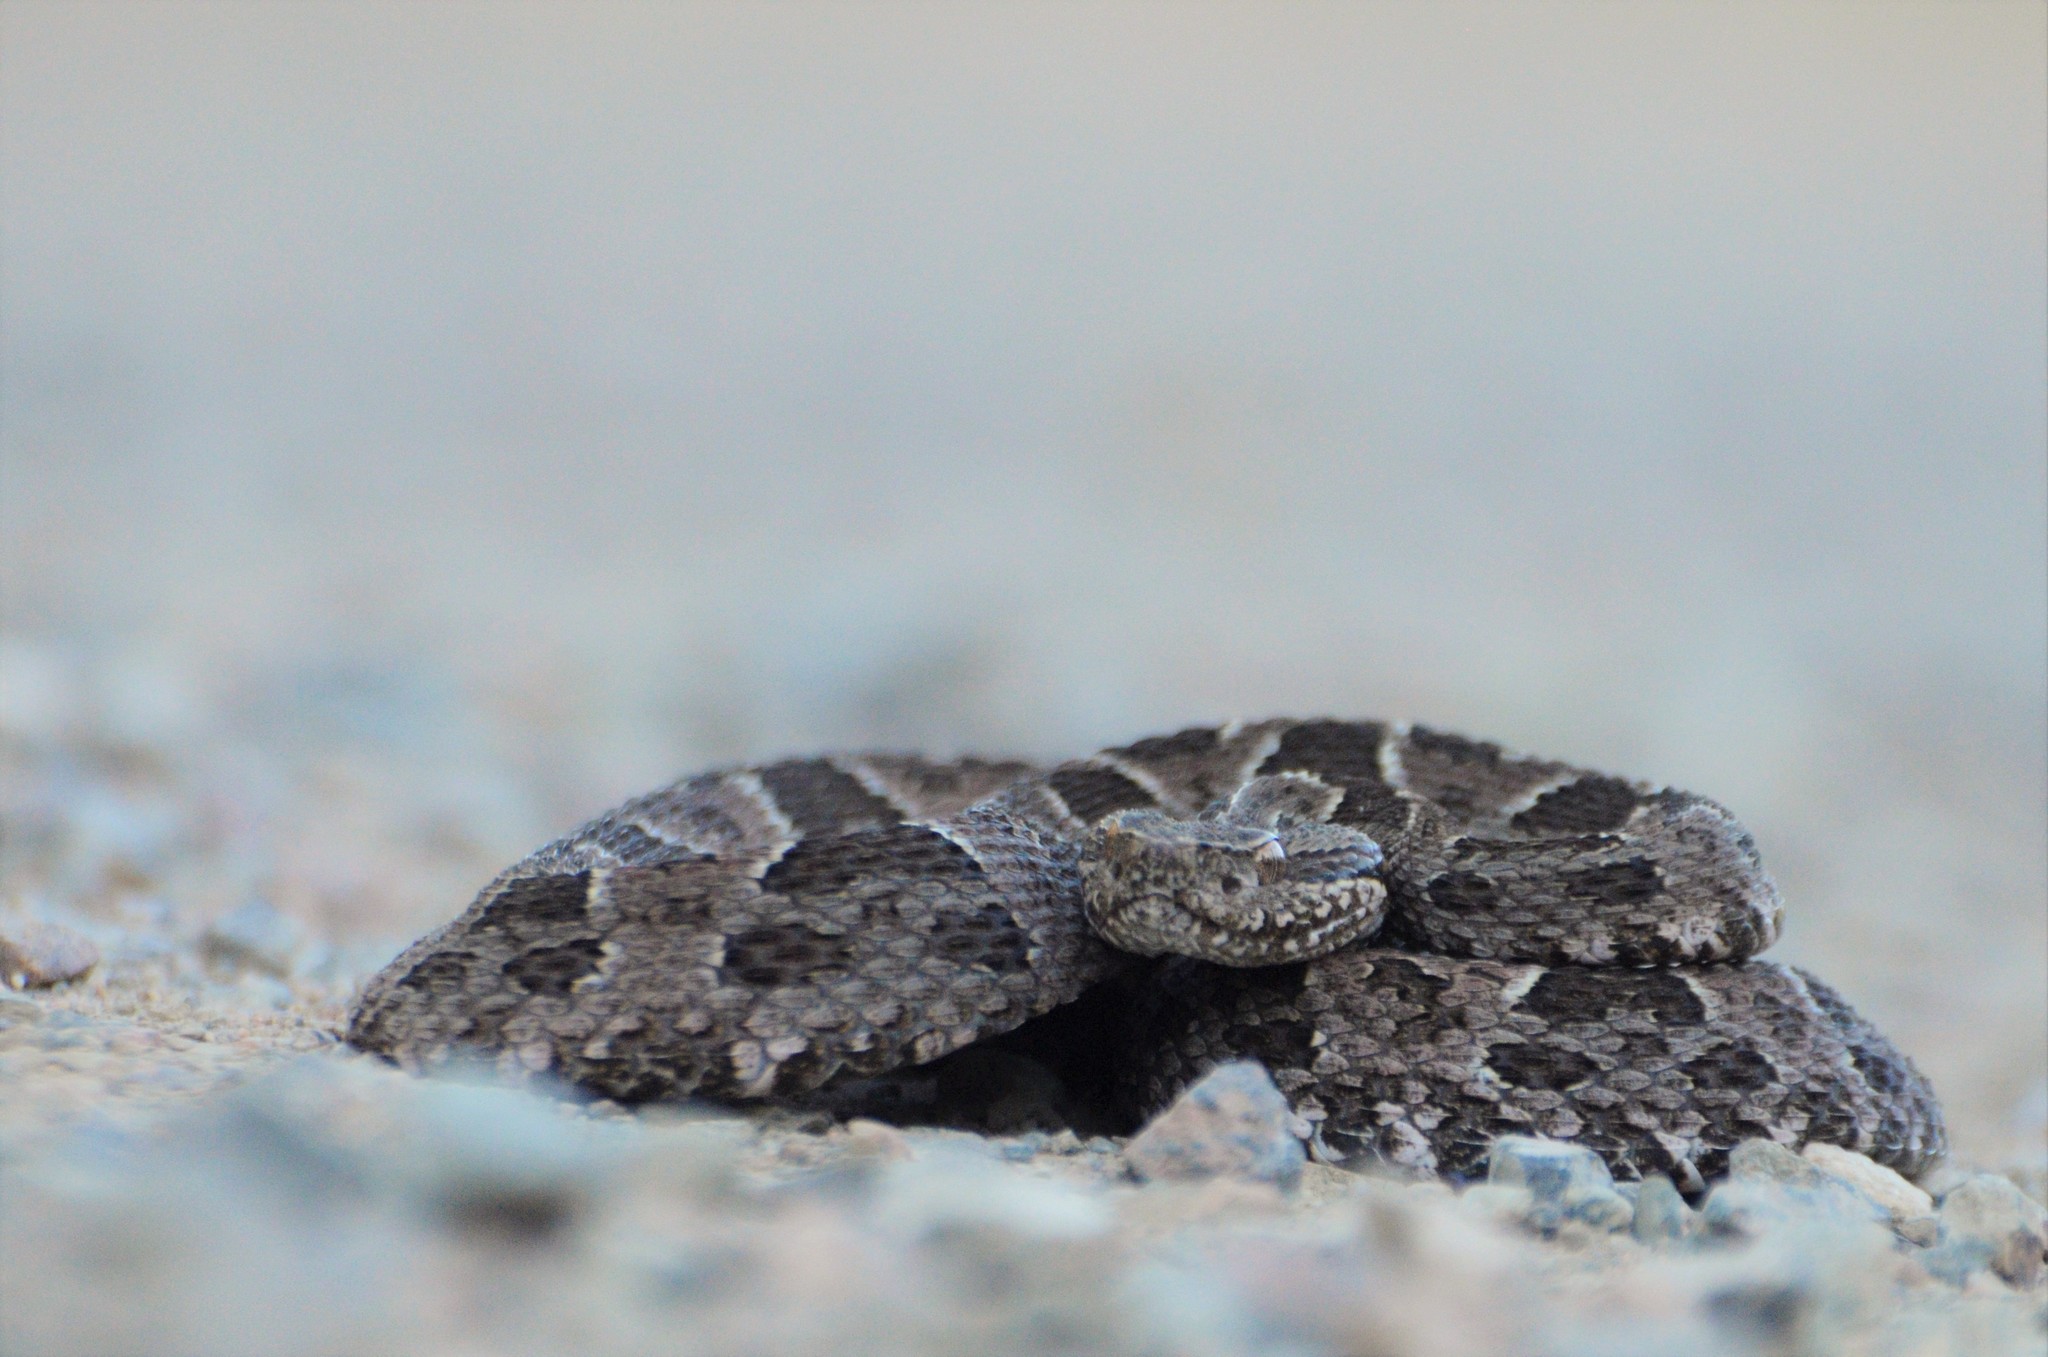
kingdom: Animalia
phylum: Chordata
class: Squamata
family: Viperidae
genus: Bothrops
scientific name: Bothrops pubescens
